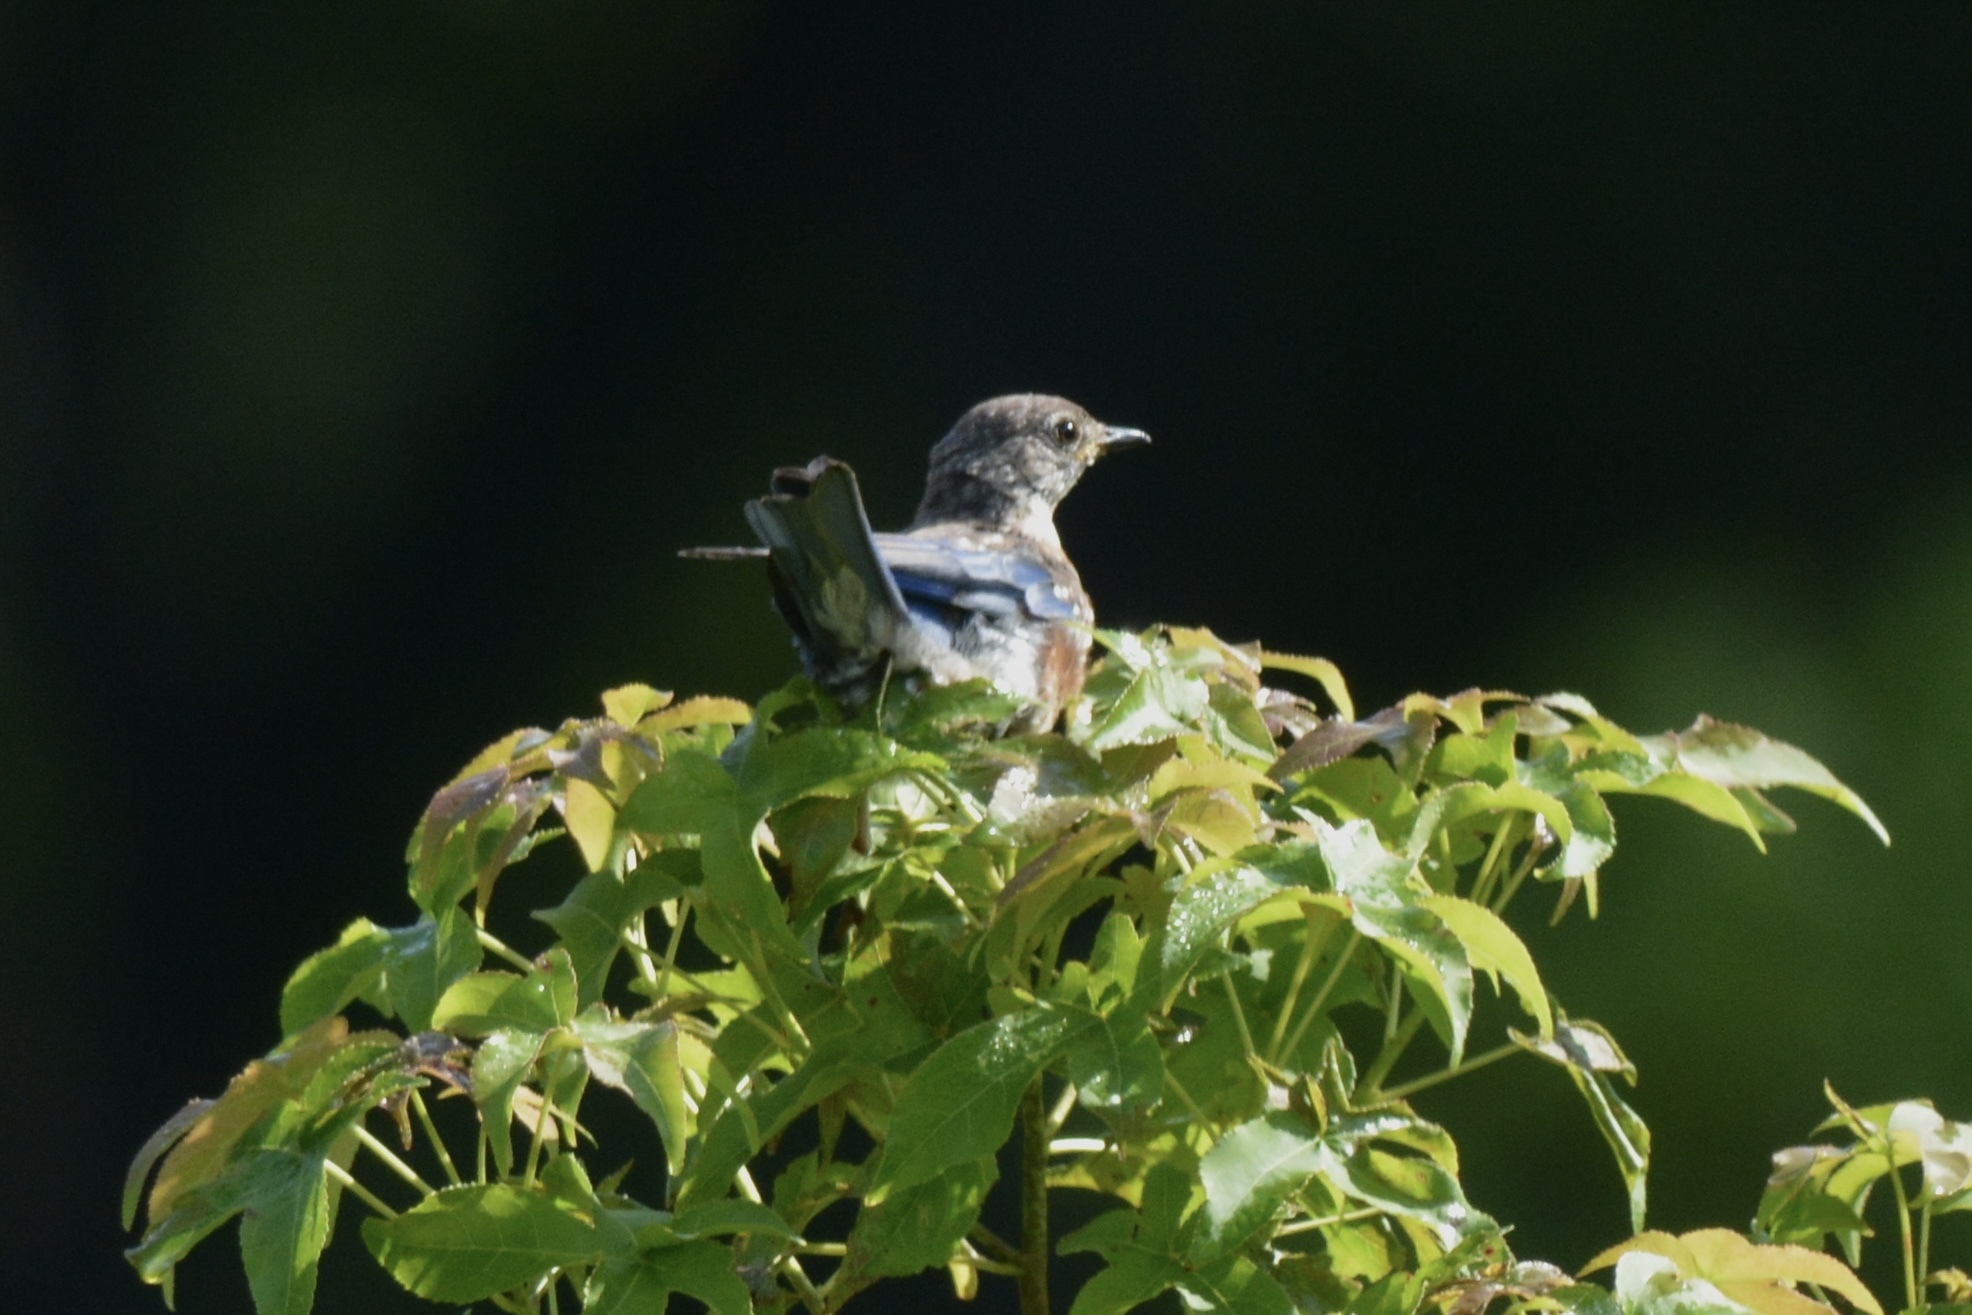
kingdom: Animalia
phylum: Chordata
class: Aves
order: Passeriformes
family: Turdidae
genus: Sialia
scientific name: Sialia sialis
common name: Eastern bluebird
